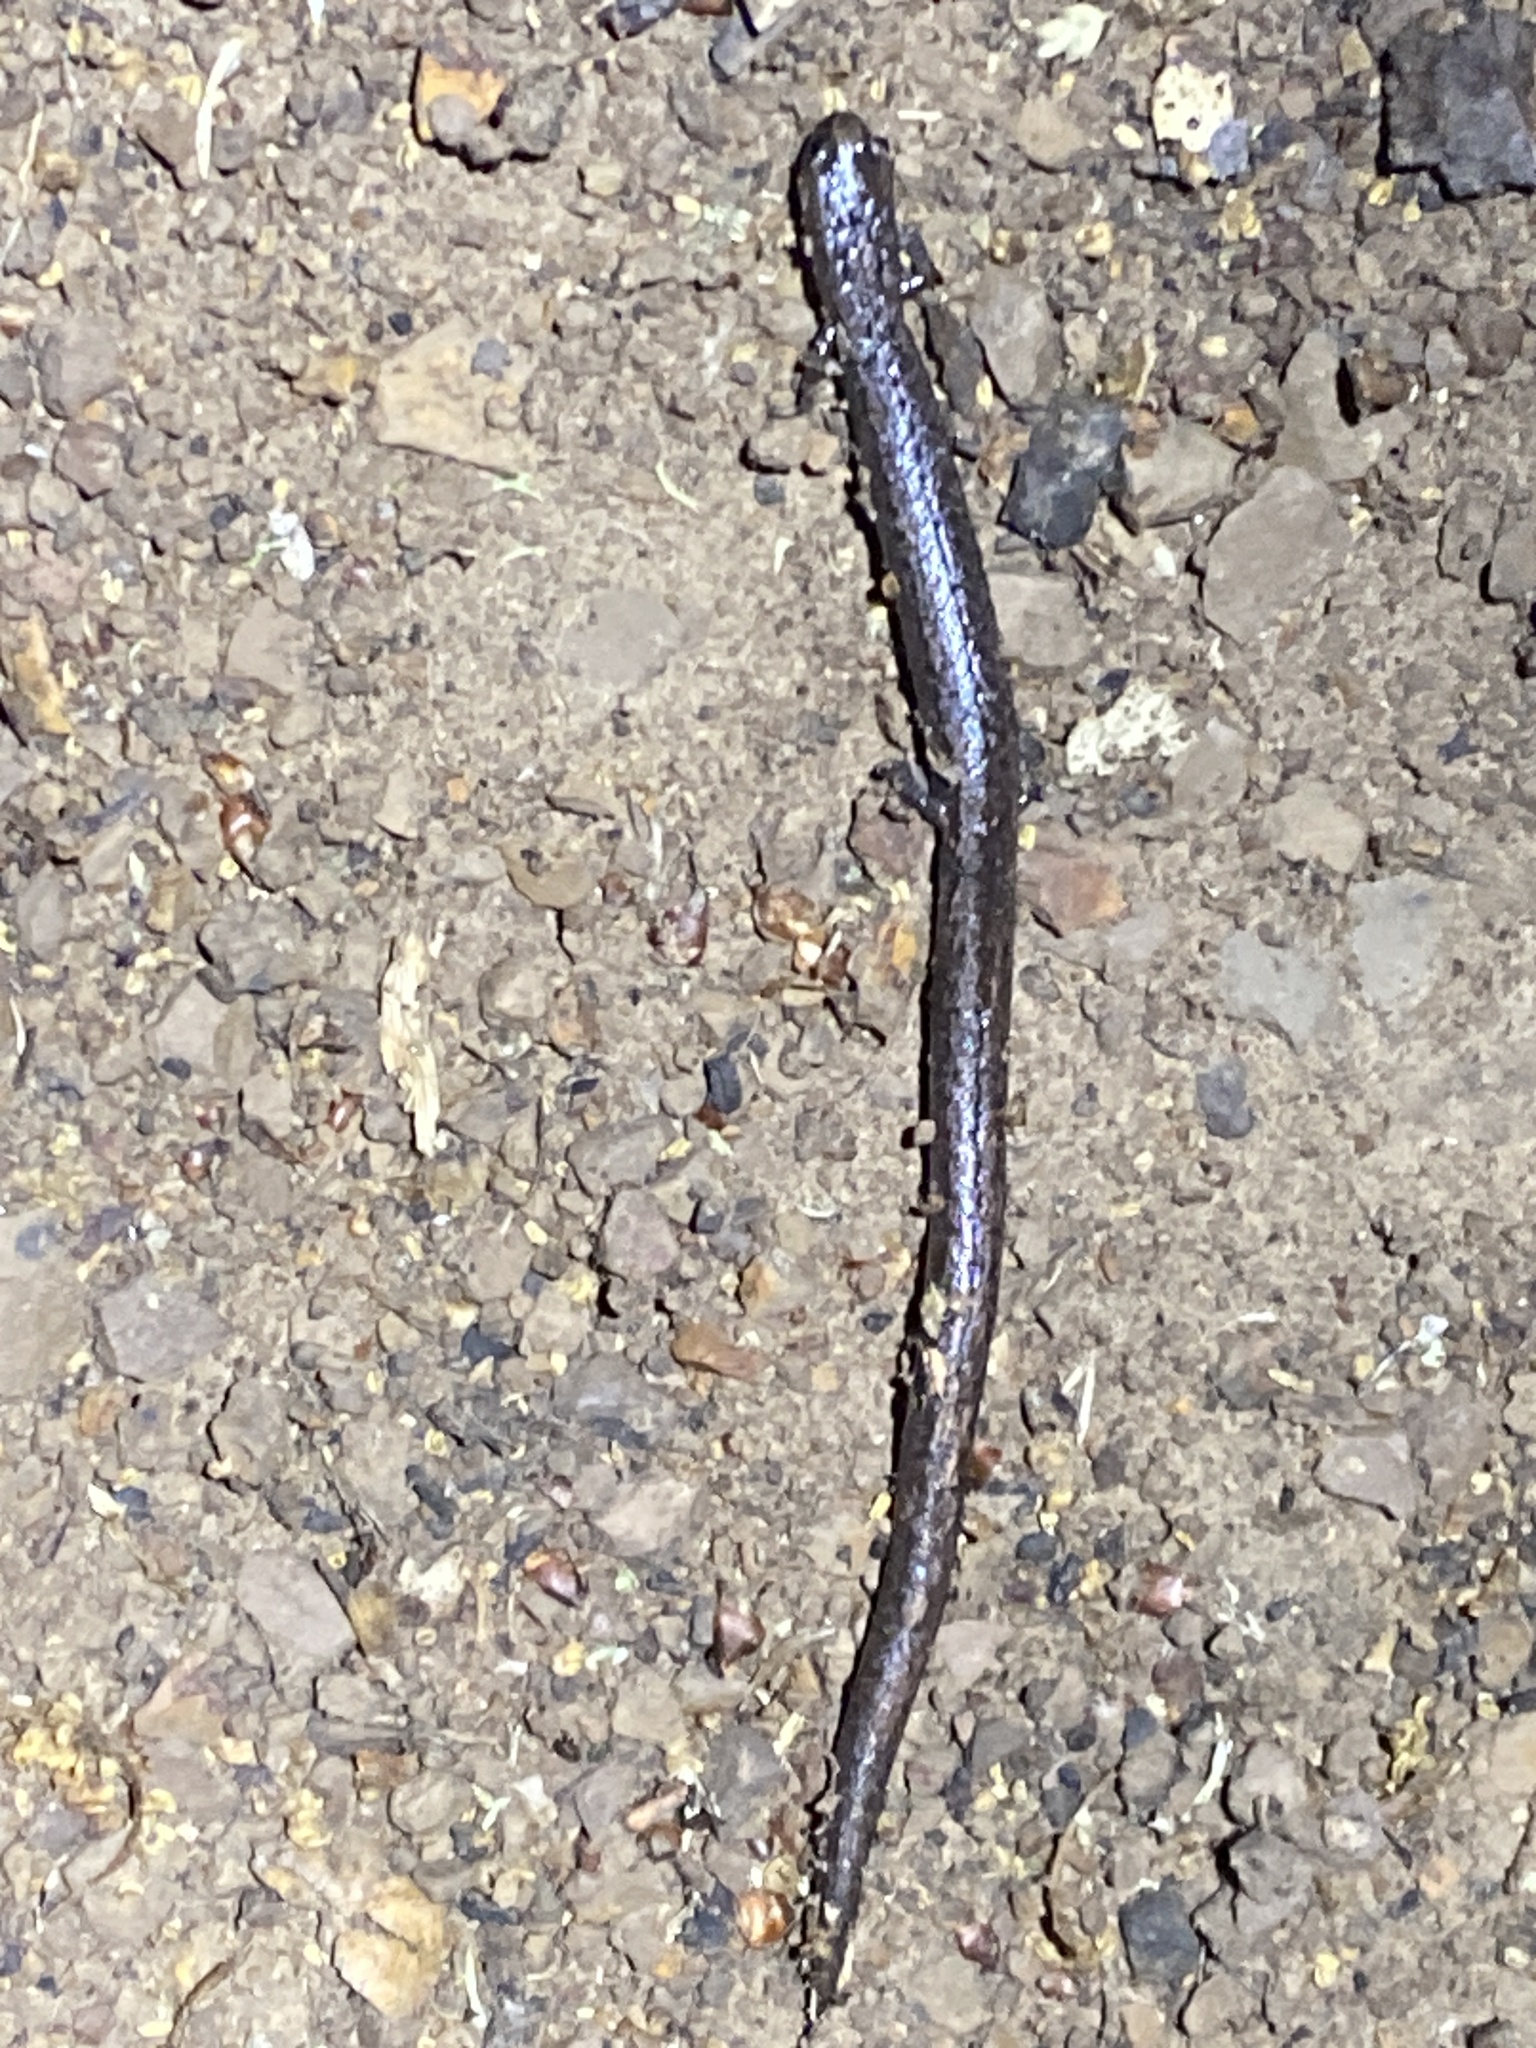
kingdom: Animalia
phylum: Chordata
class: Amphibia
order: Caudata
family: Plethodontidae
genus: Batrachoseps
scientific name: Batrachoseps attenuatus
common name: California slender salamander
